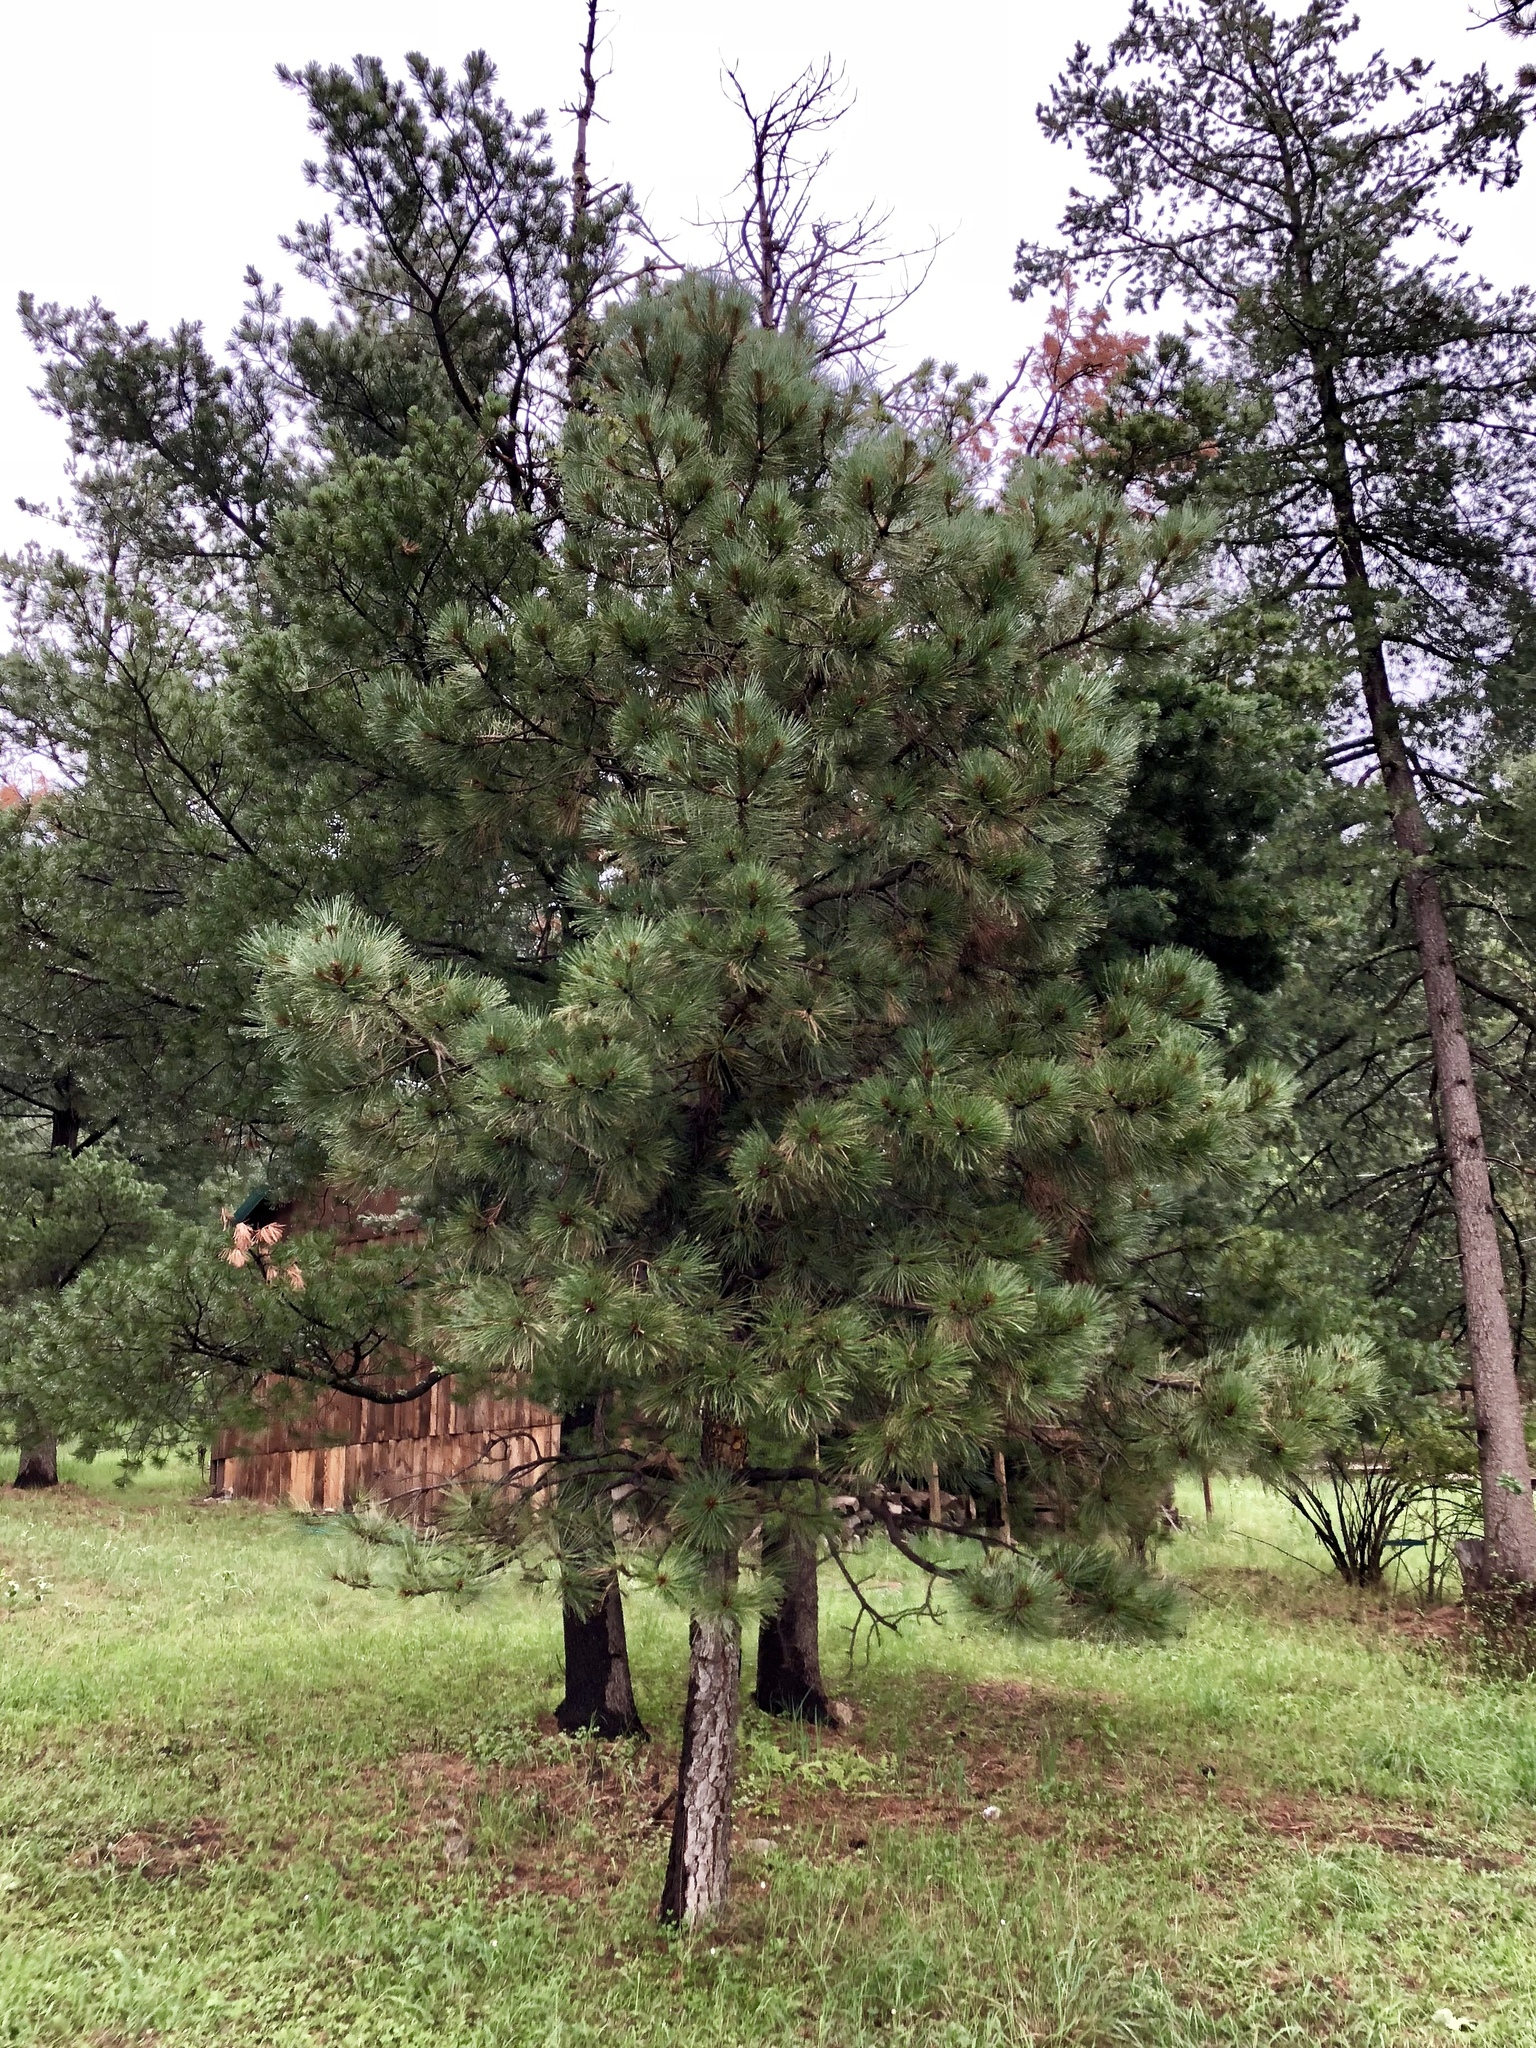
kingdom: Plantae
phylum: Tracheophyta
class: Pinopsida
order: Pinales
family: Pinaceae
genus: Pinus
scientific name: Pinus ponderosa
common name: Western yellow-pine
